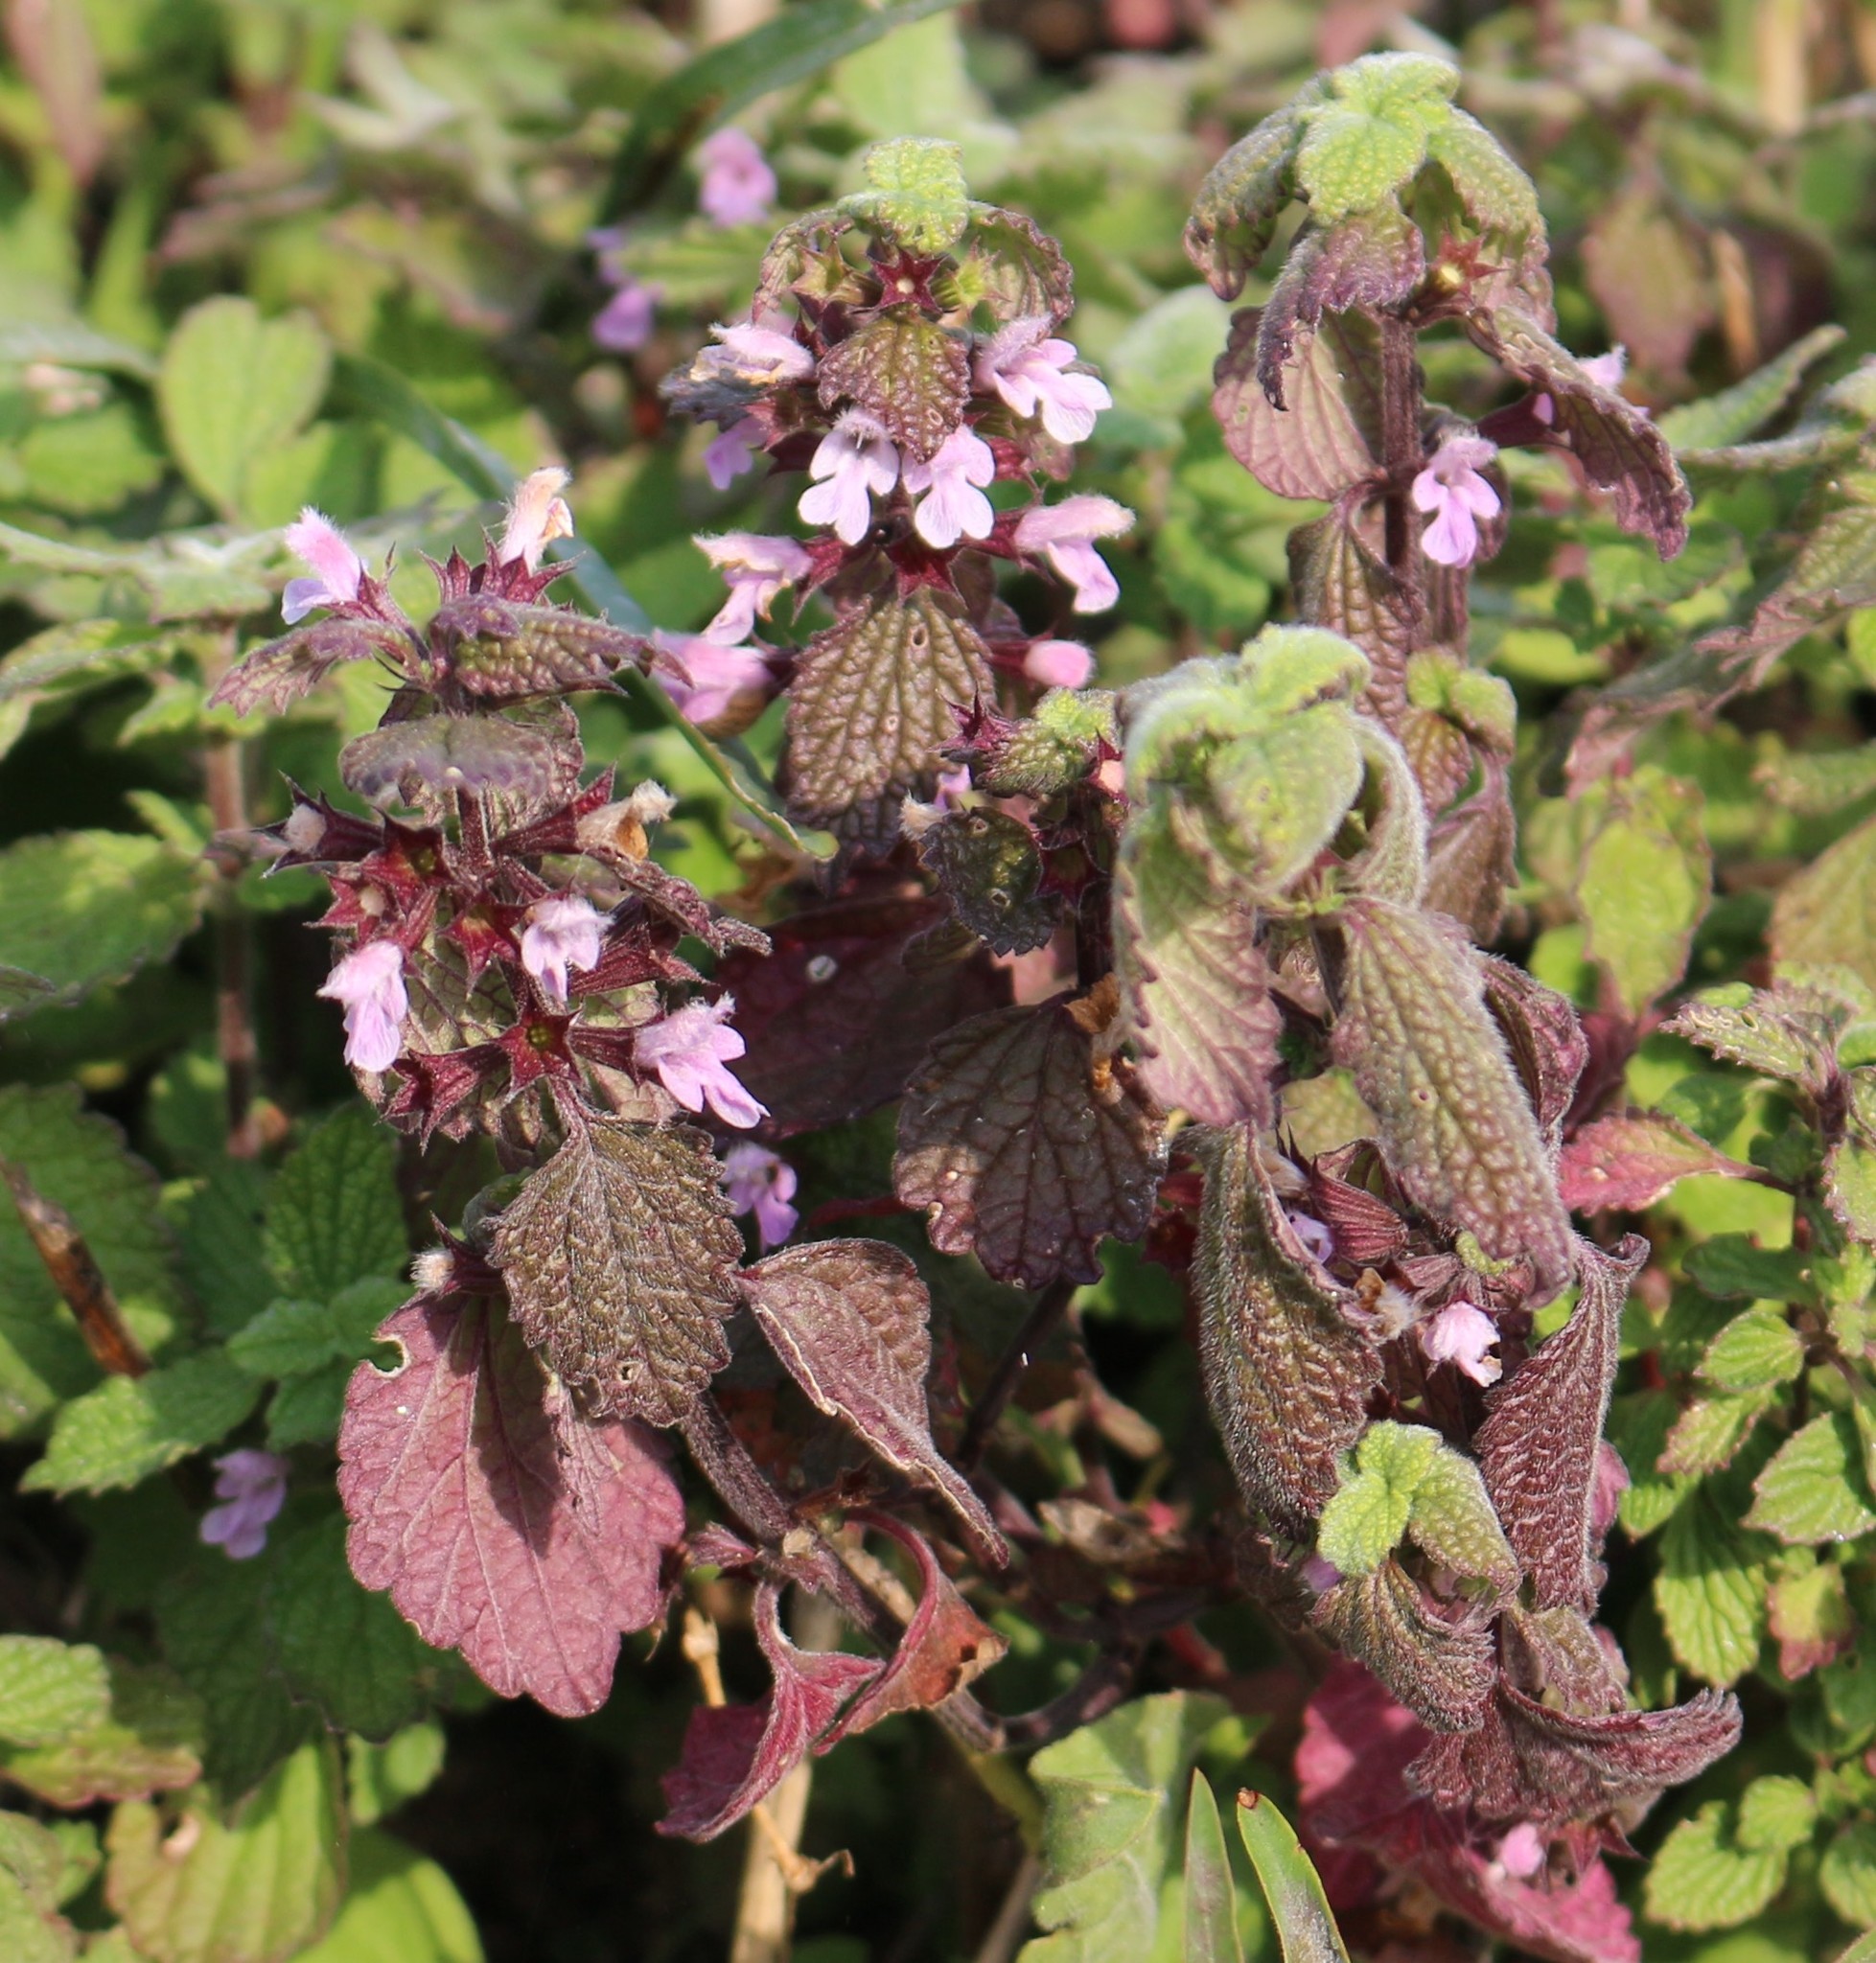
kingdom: Plantae
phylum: Tracheophyta
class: Magnoliopsida
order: Lamiales
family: Lamiaceae
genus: Ballota
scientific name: Ballota nigra
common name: Black horehound
